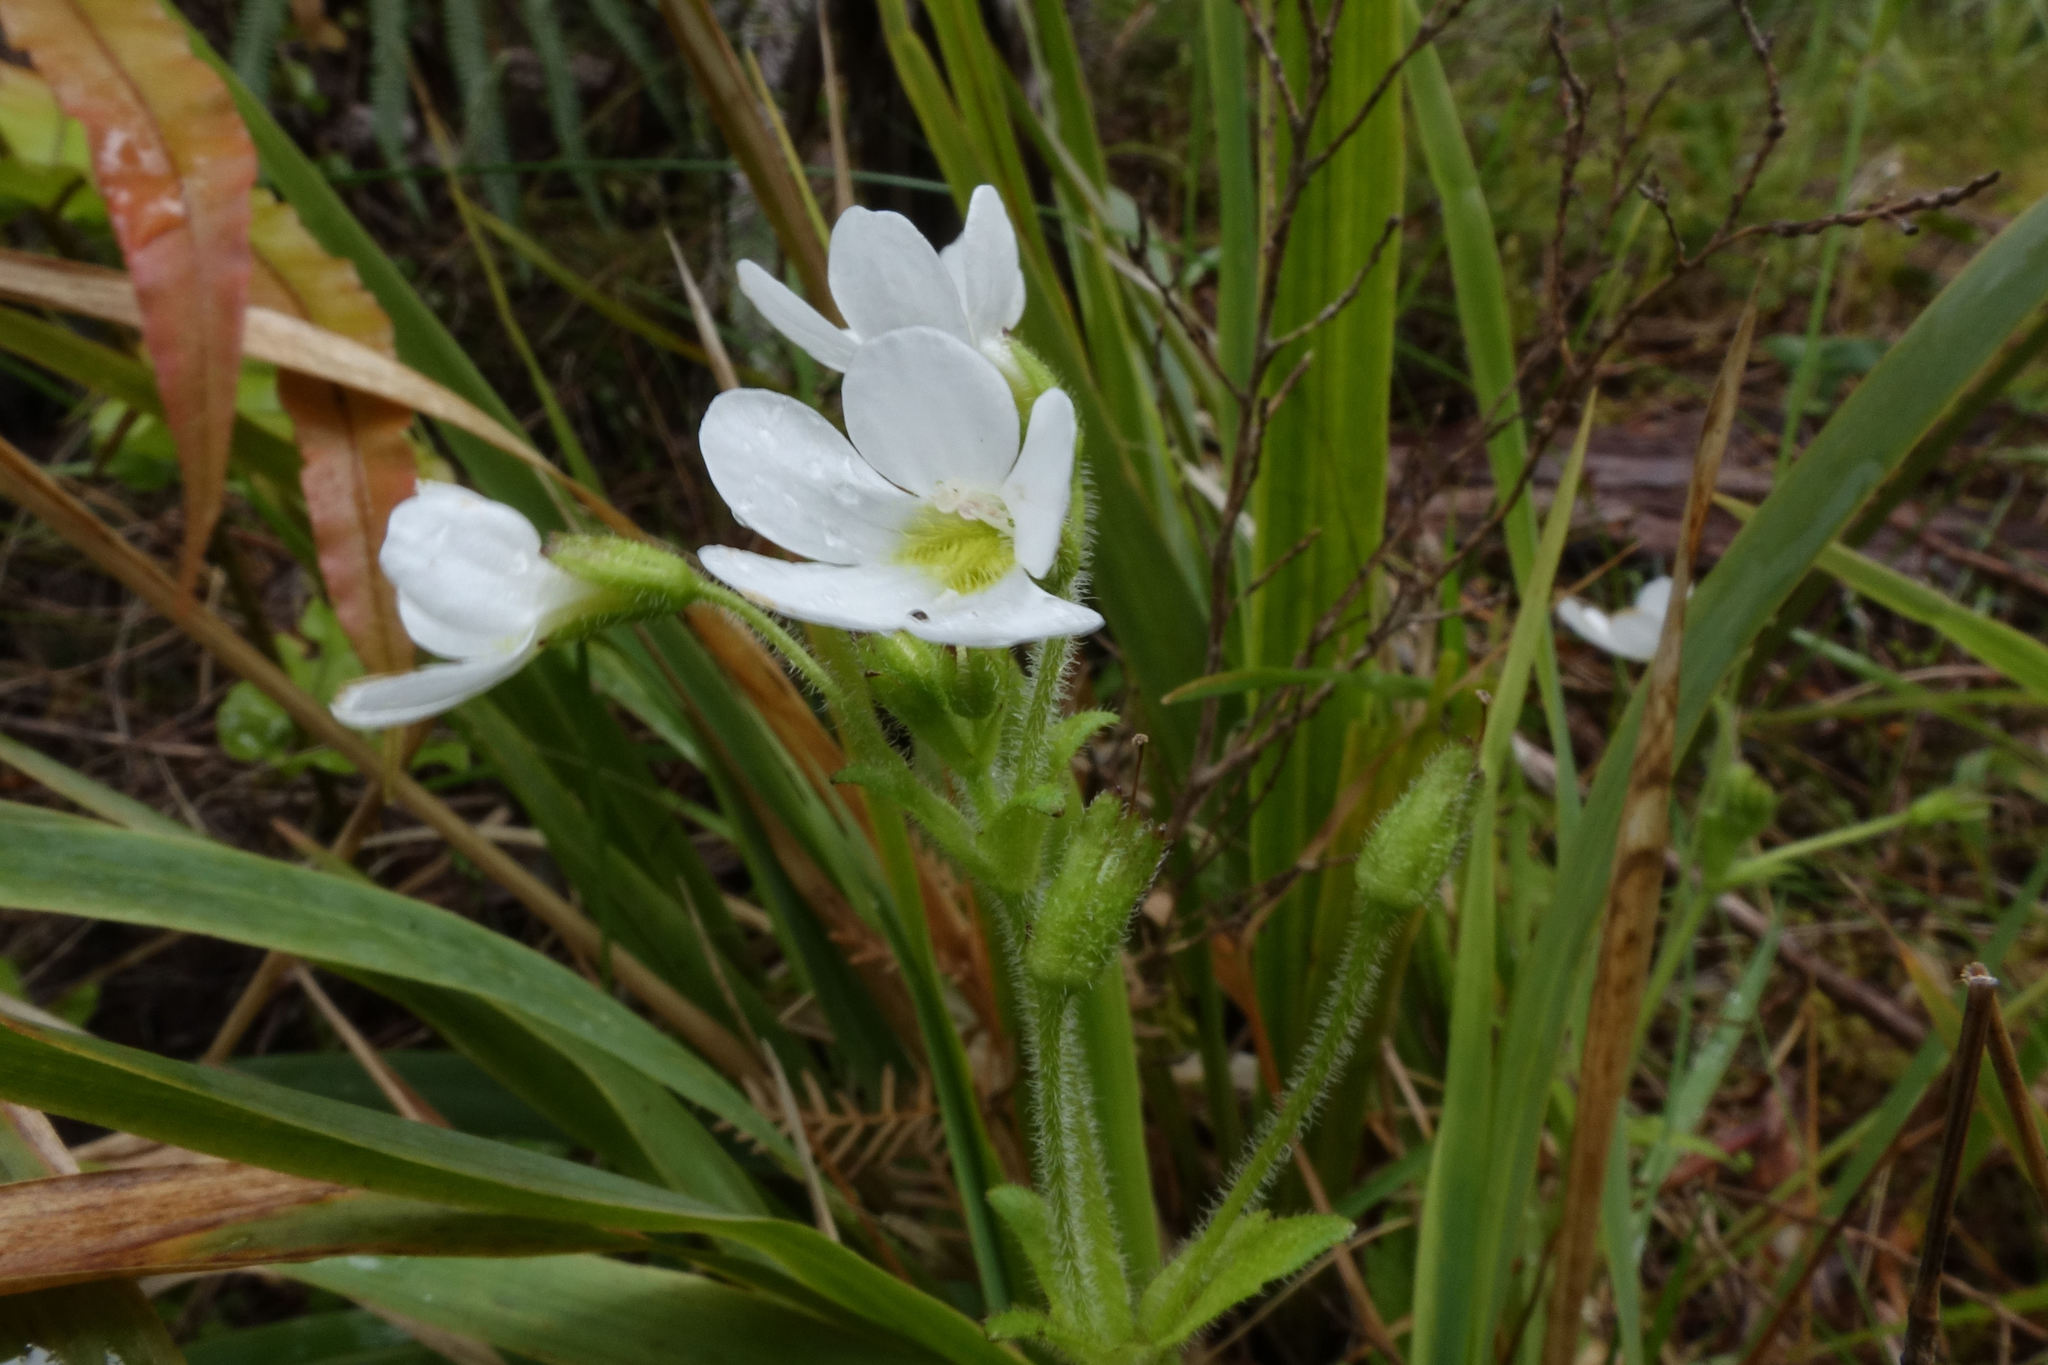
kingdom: Plantae
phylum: Tracheophyta
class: Magnoliopsida
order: Lamiales
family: Plantaginaceae
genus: Ourisia
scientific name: Ourisia crosbyi
